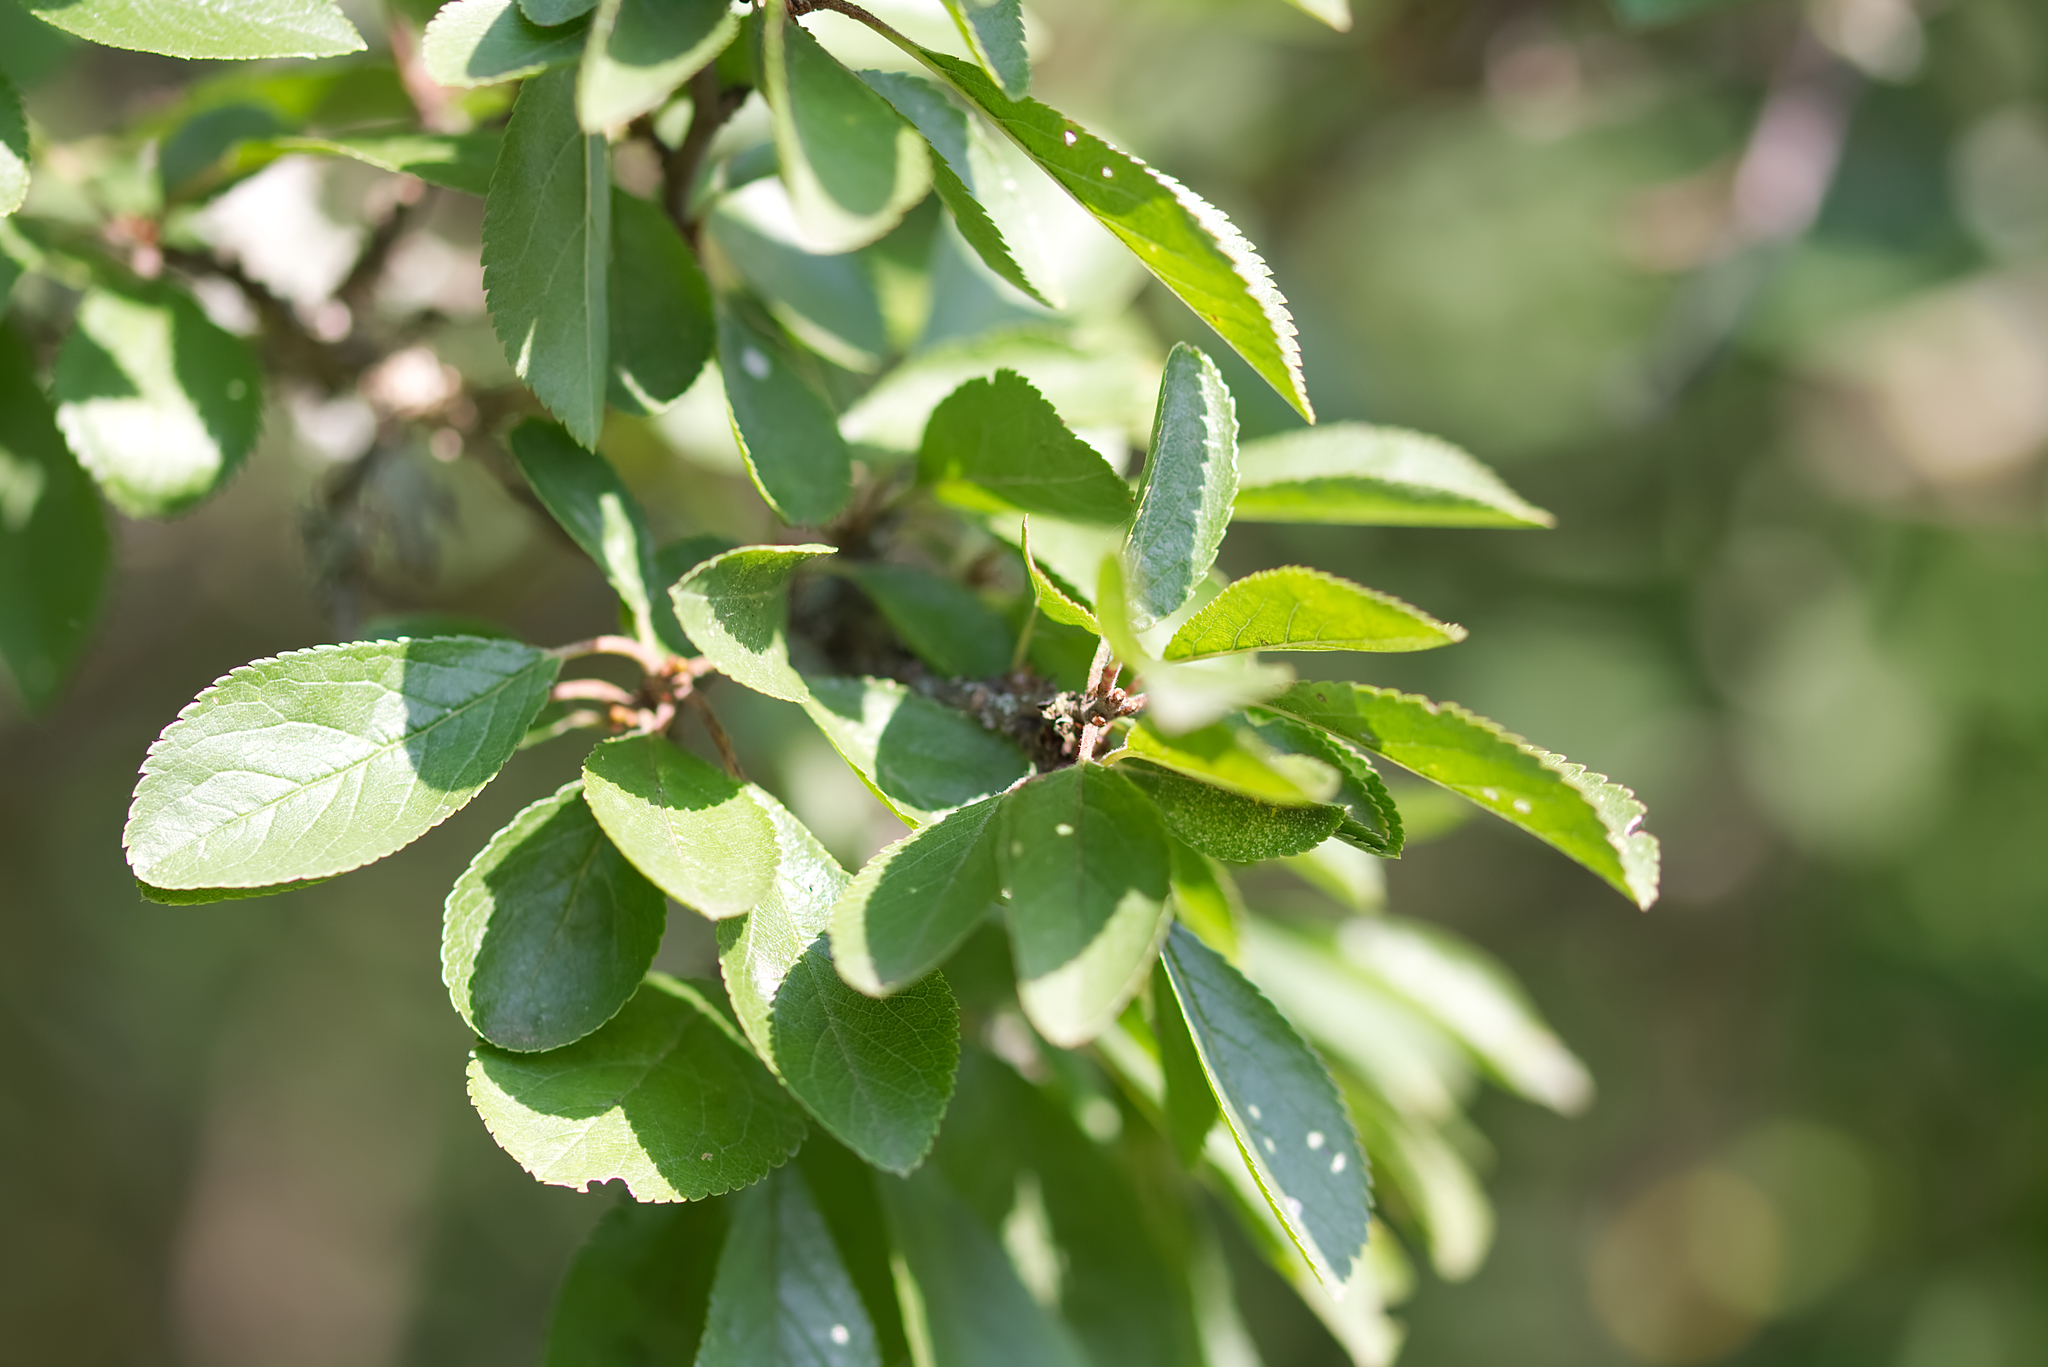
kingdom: Plantae
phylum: Tracheophyta
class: Magnoliopsida
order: Rosales
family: Rosaceae
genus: Prunus
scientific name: Prunus spinosa
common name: Blackthorn
